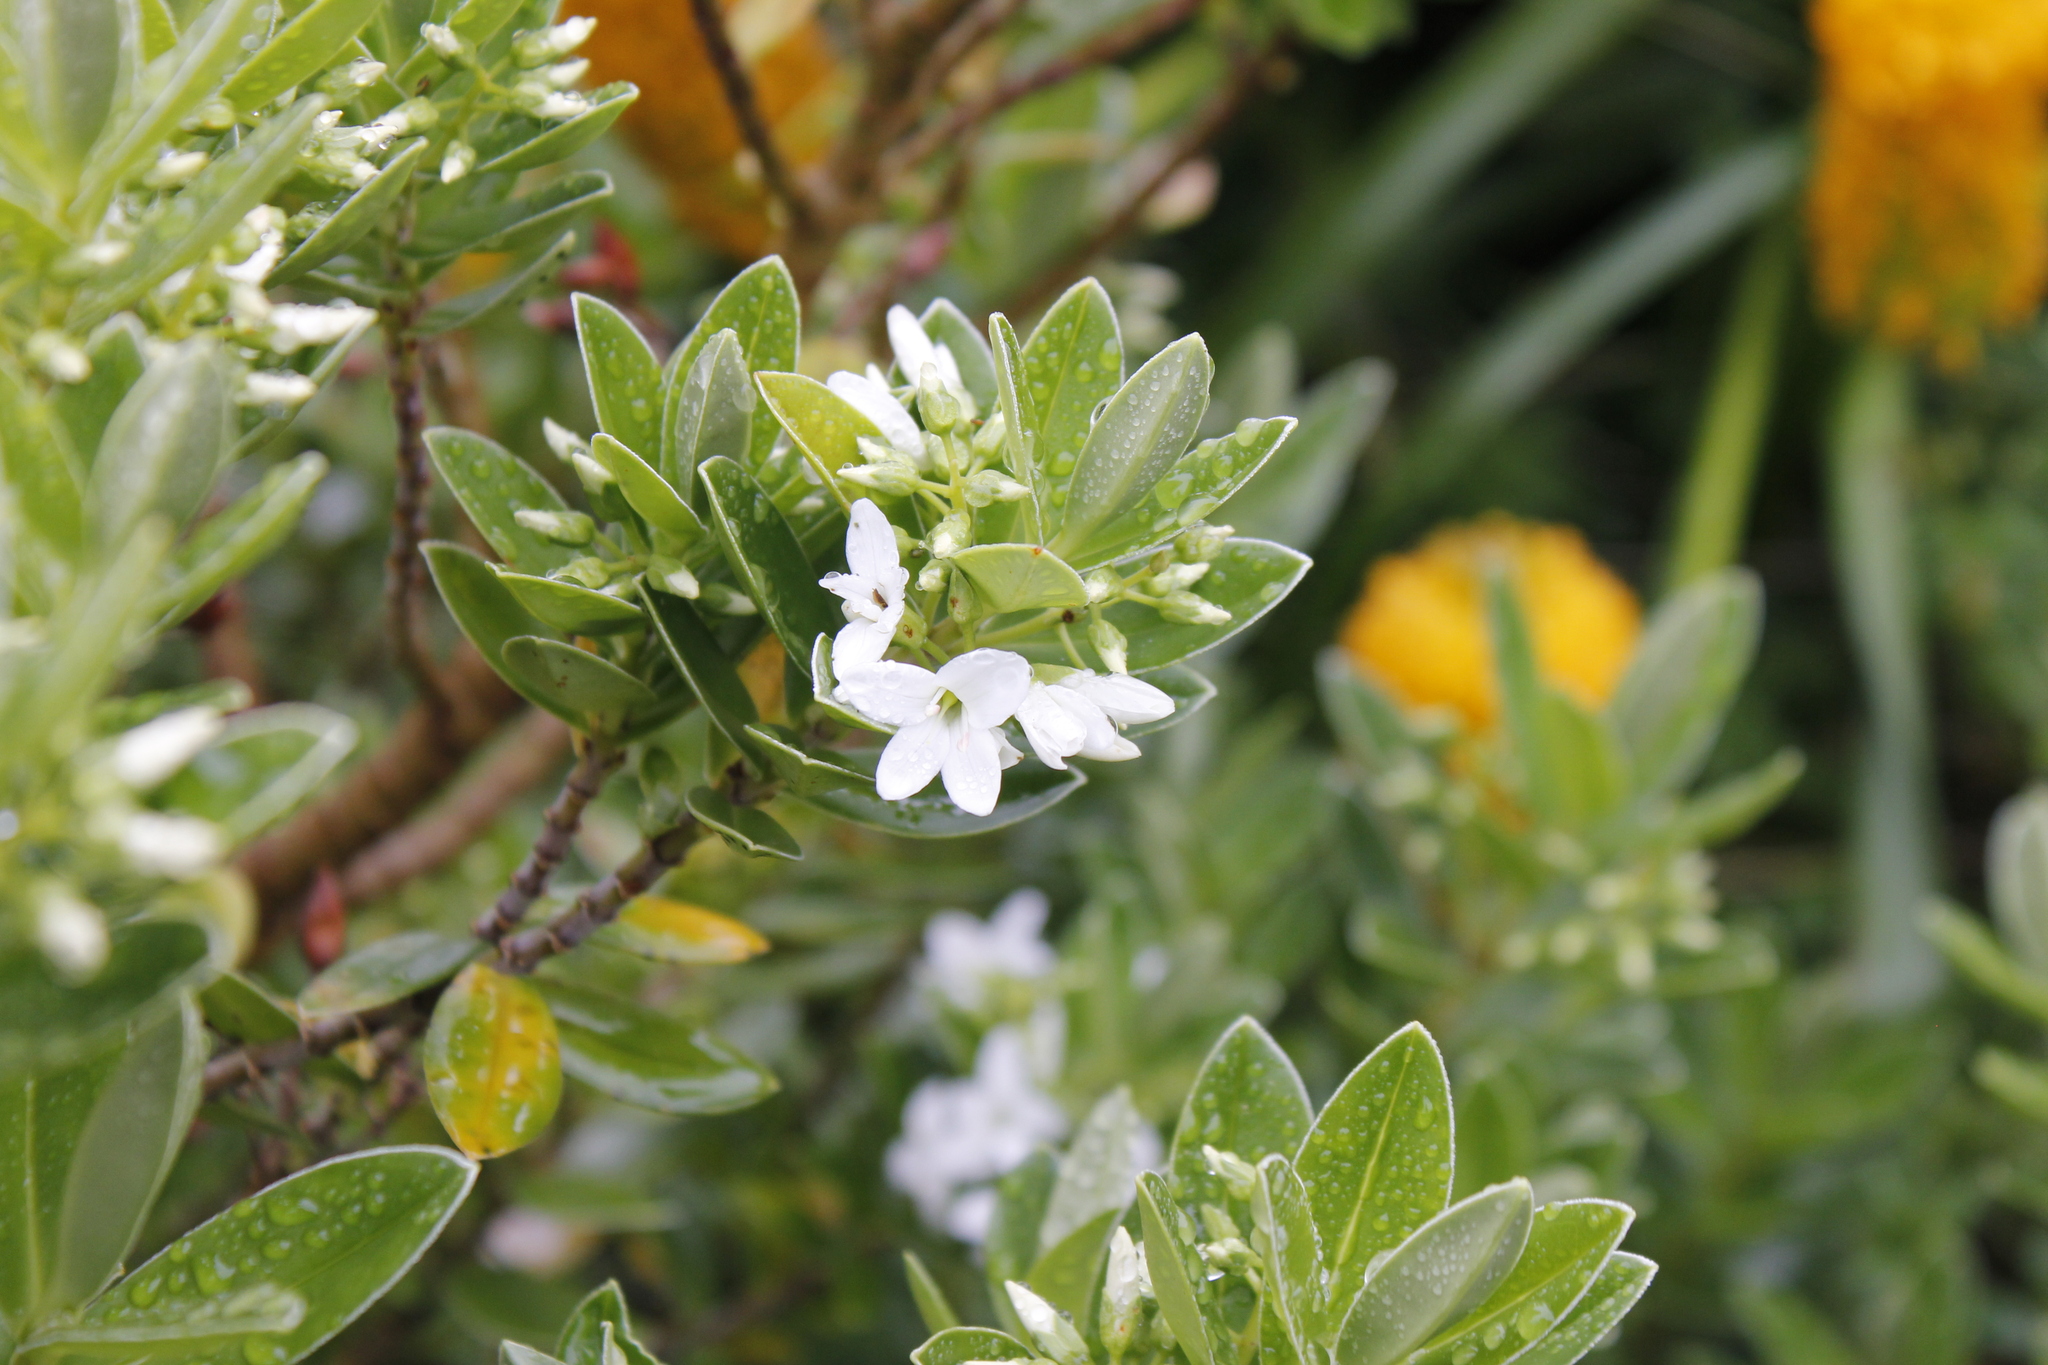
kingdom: Plantae
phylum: Tracheophyta
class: Magnoliopsida
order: Lamiales
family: Plantaginaceae
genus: Veronica
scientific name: Veronica elliptica
